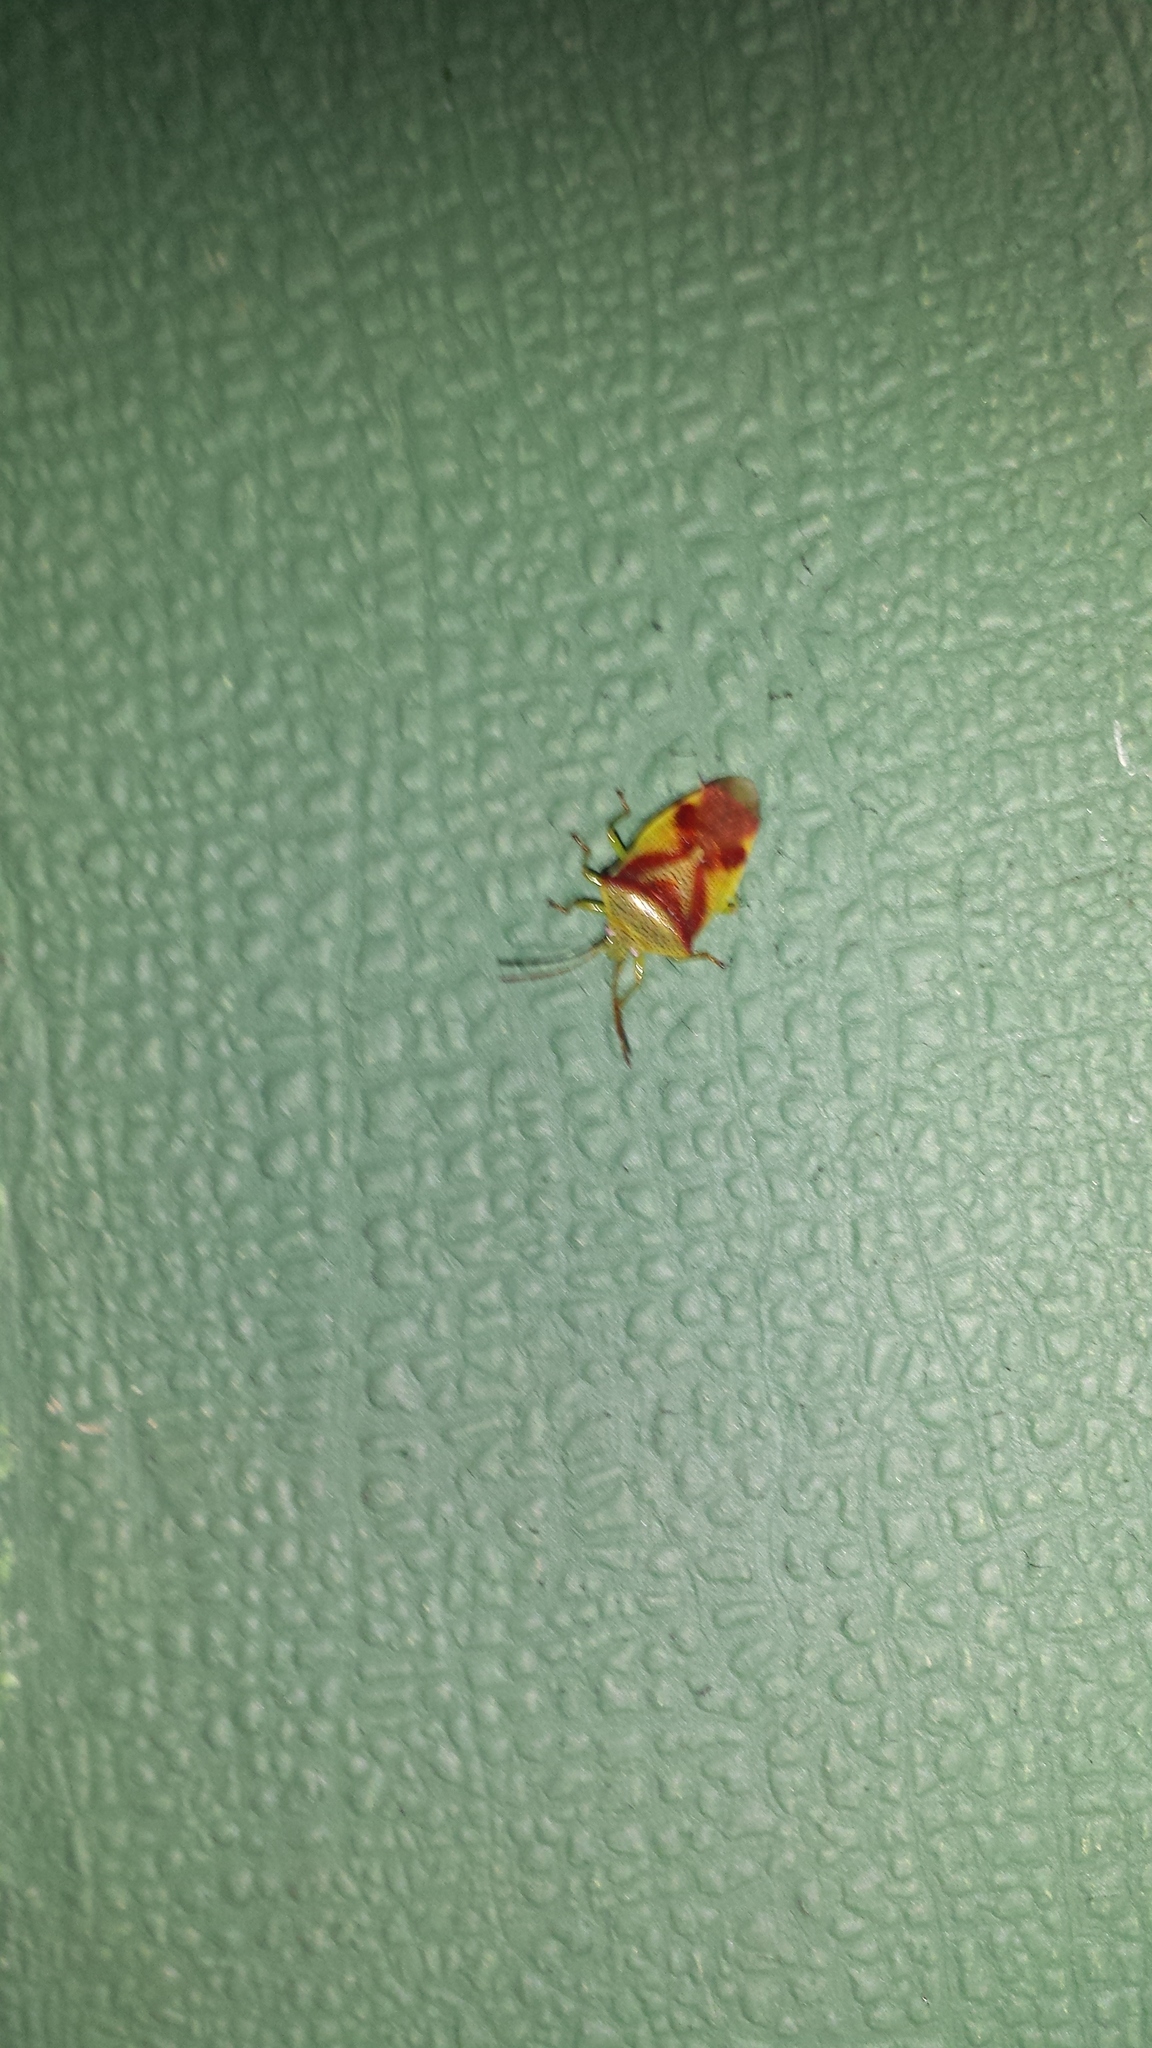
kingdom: Animalia
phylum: Arthropoda
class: Insecta
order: Hemiptera
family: Acanthosomatidae
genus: Elasmostethus
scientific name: Elasmostethus cruciatus
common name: Red-cross shield bug
